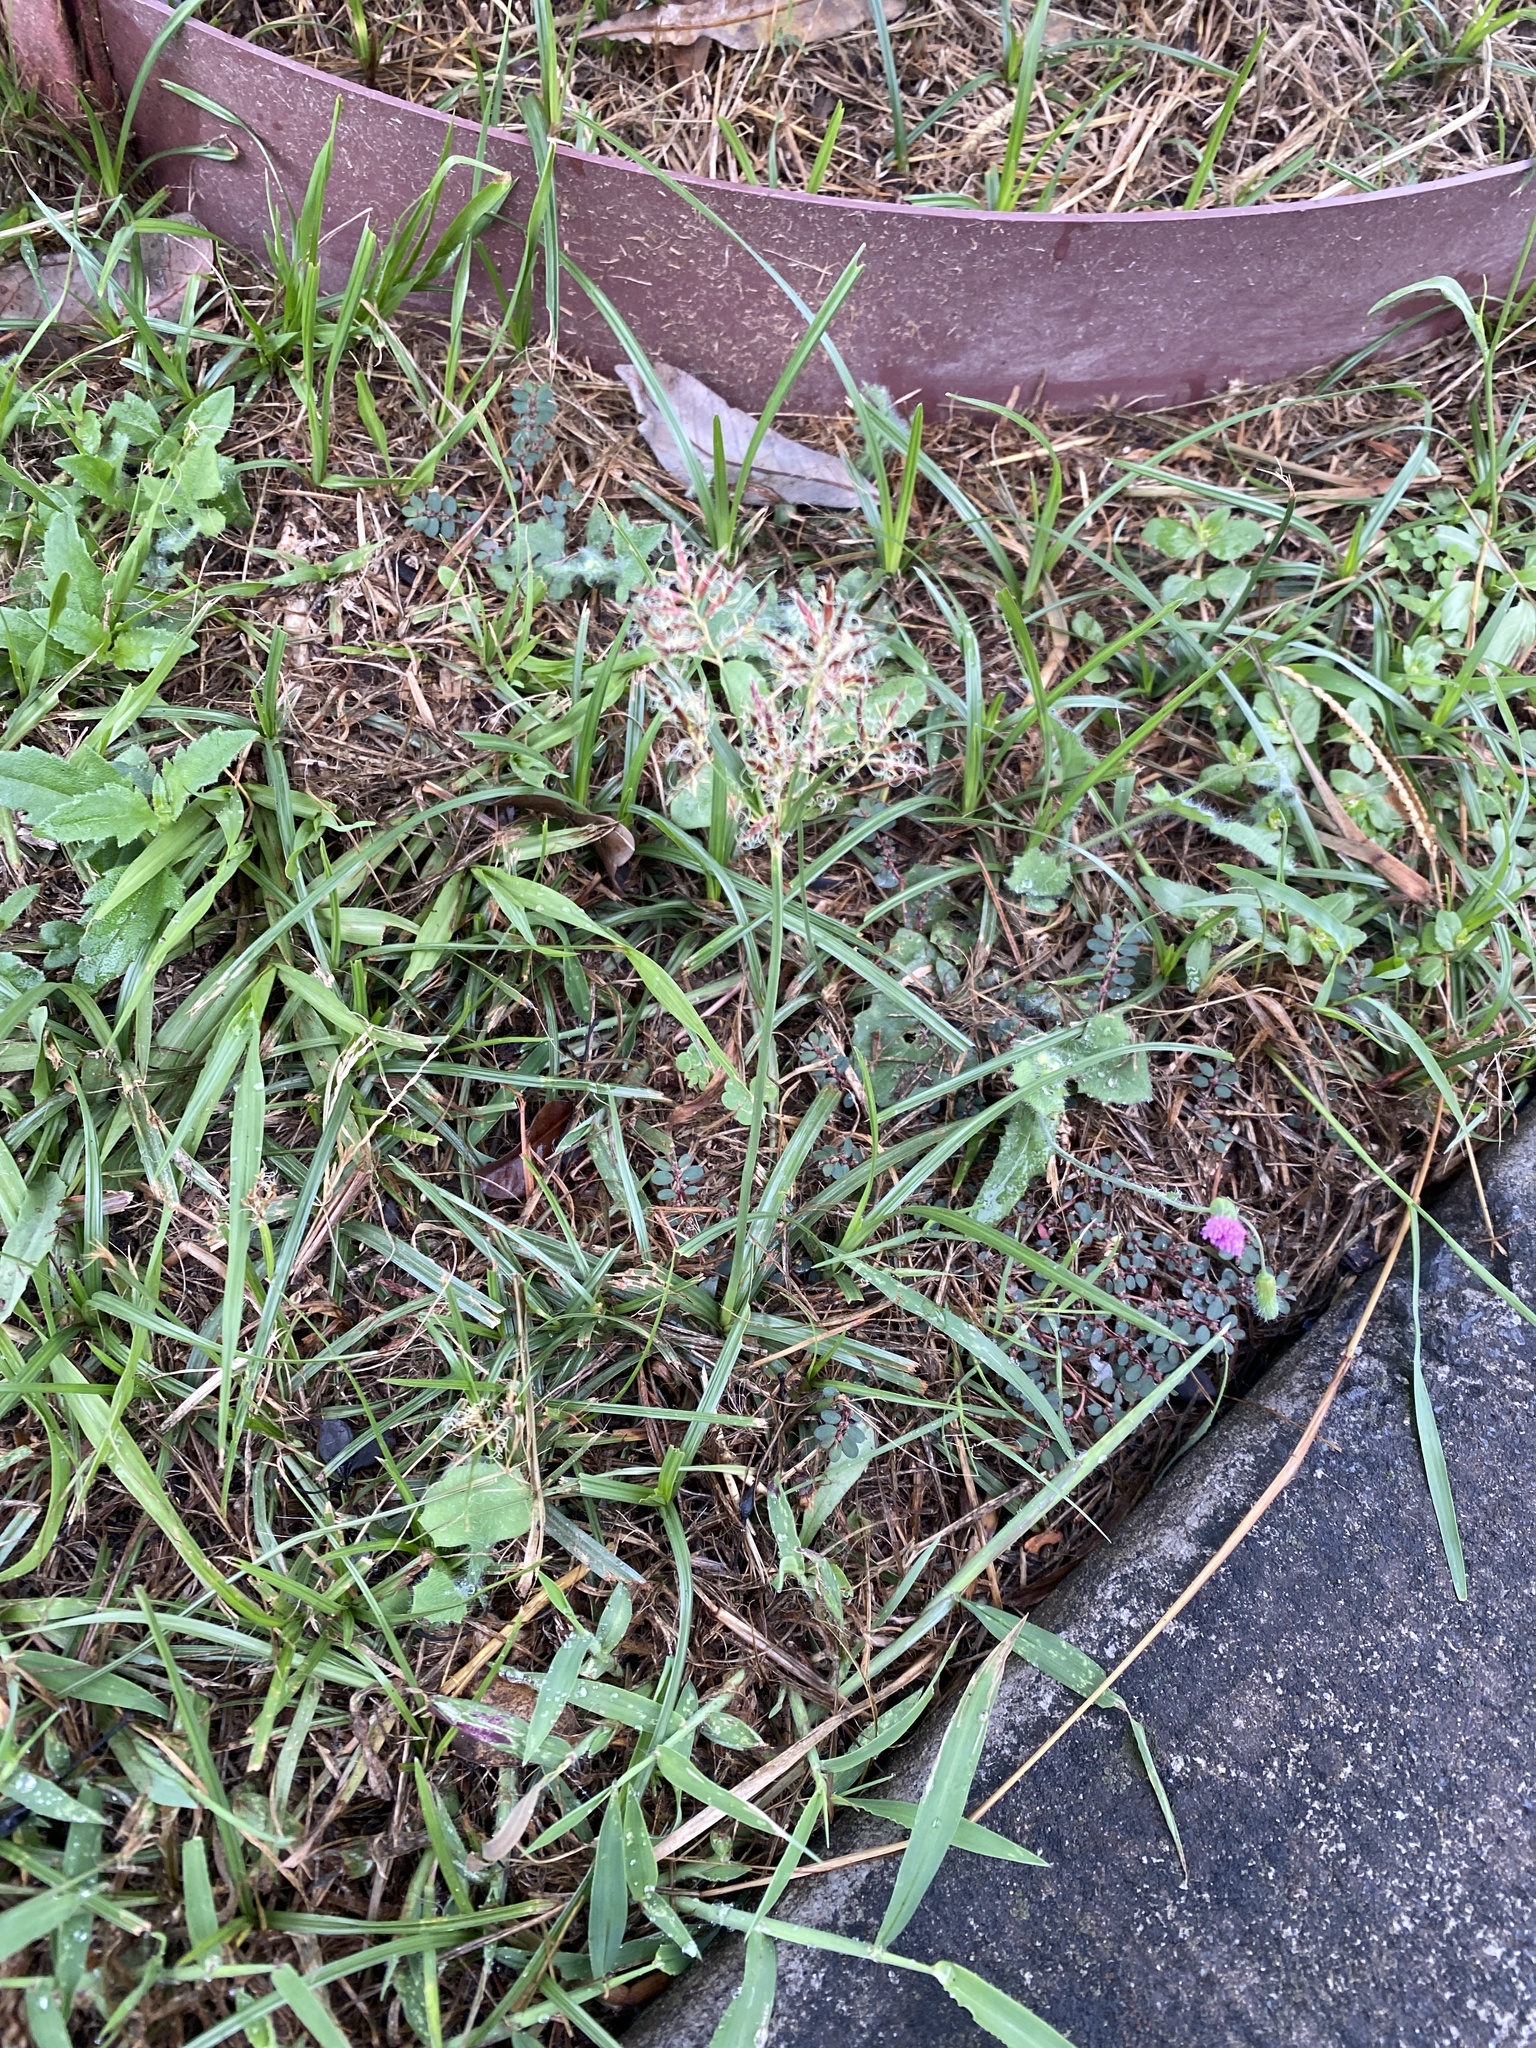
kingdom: Plantae
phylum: Tracheophyta
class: Liliopsida
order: Poales
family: Cyperaceae
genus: Cyperus
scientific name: Cyperus rotundus
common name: Nutgrass
